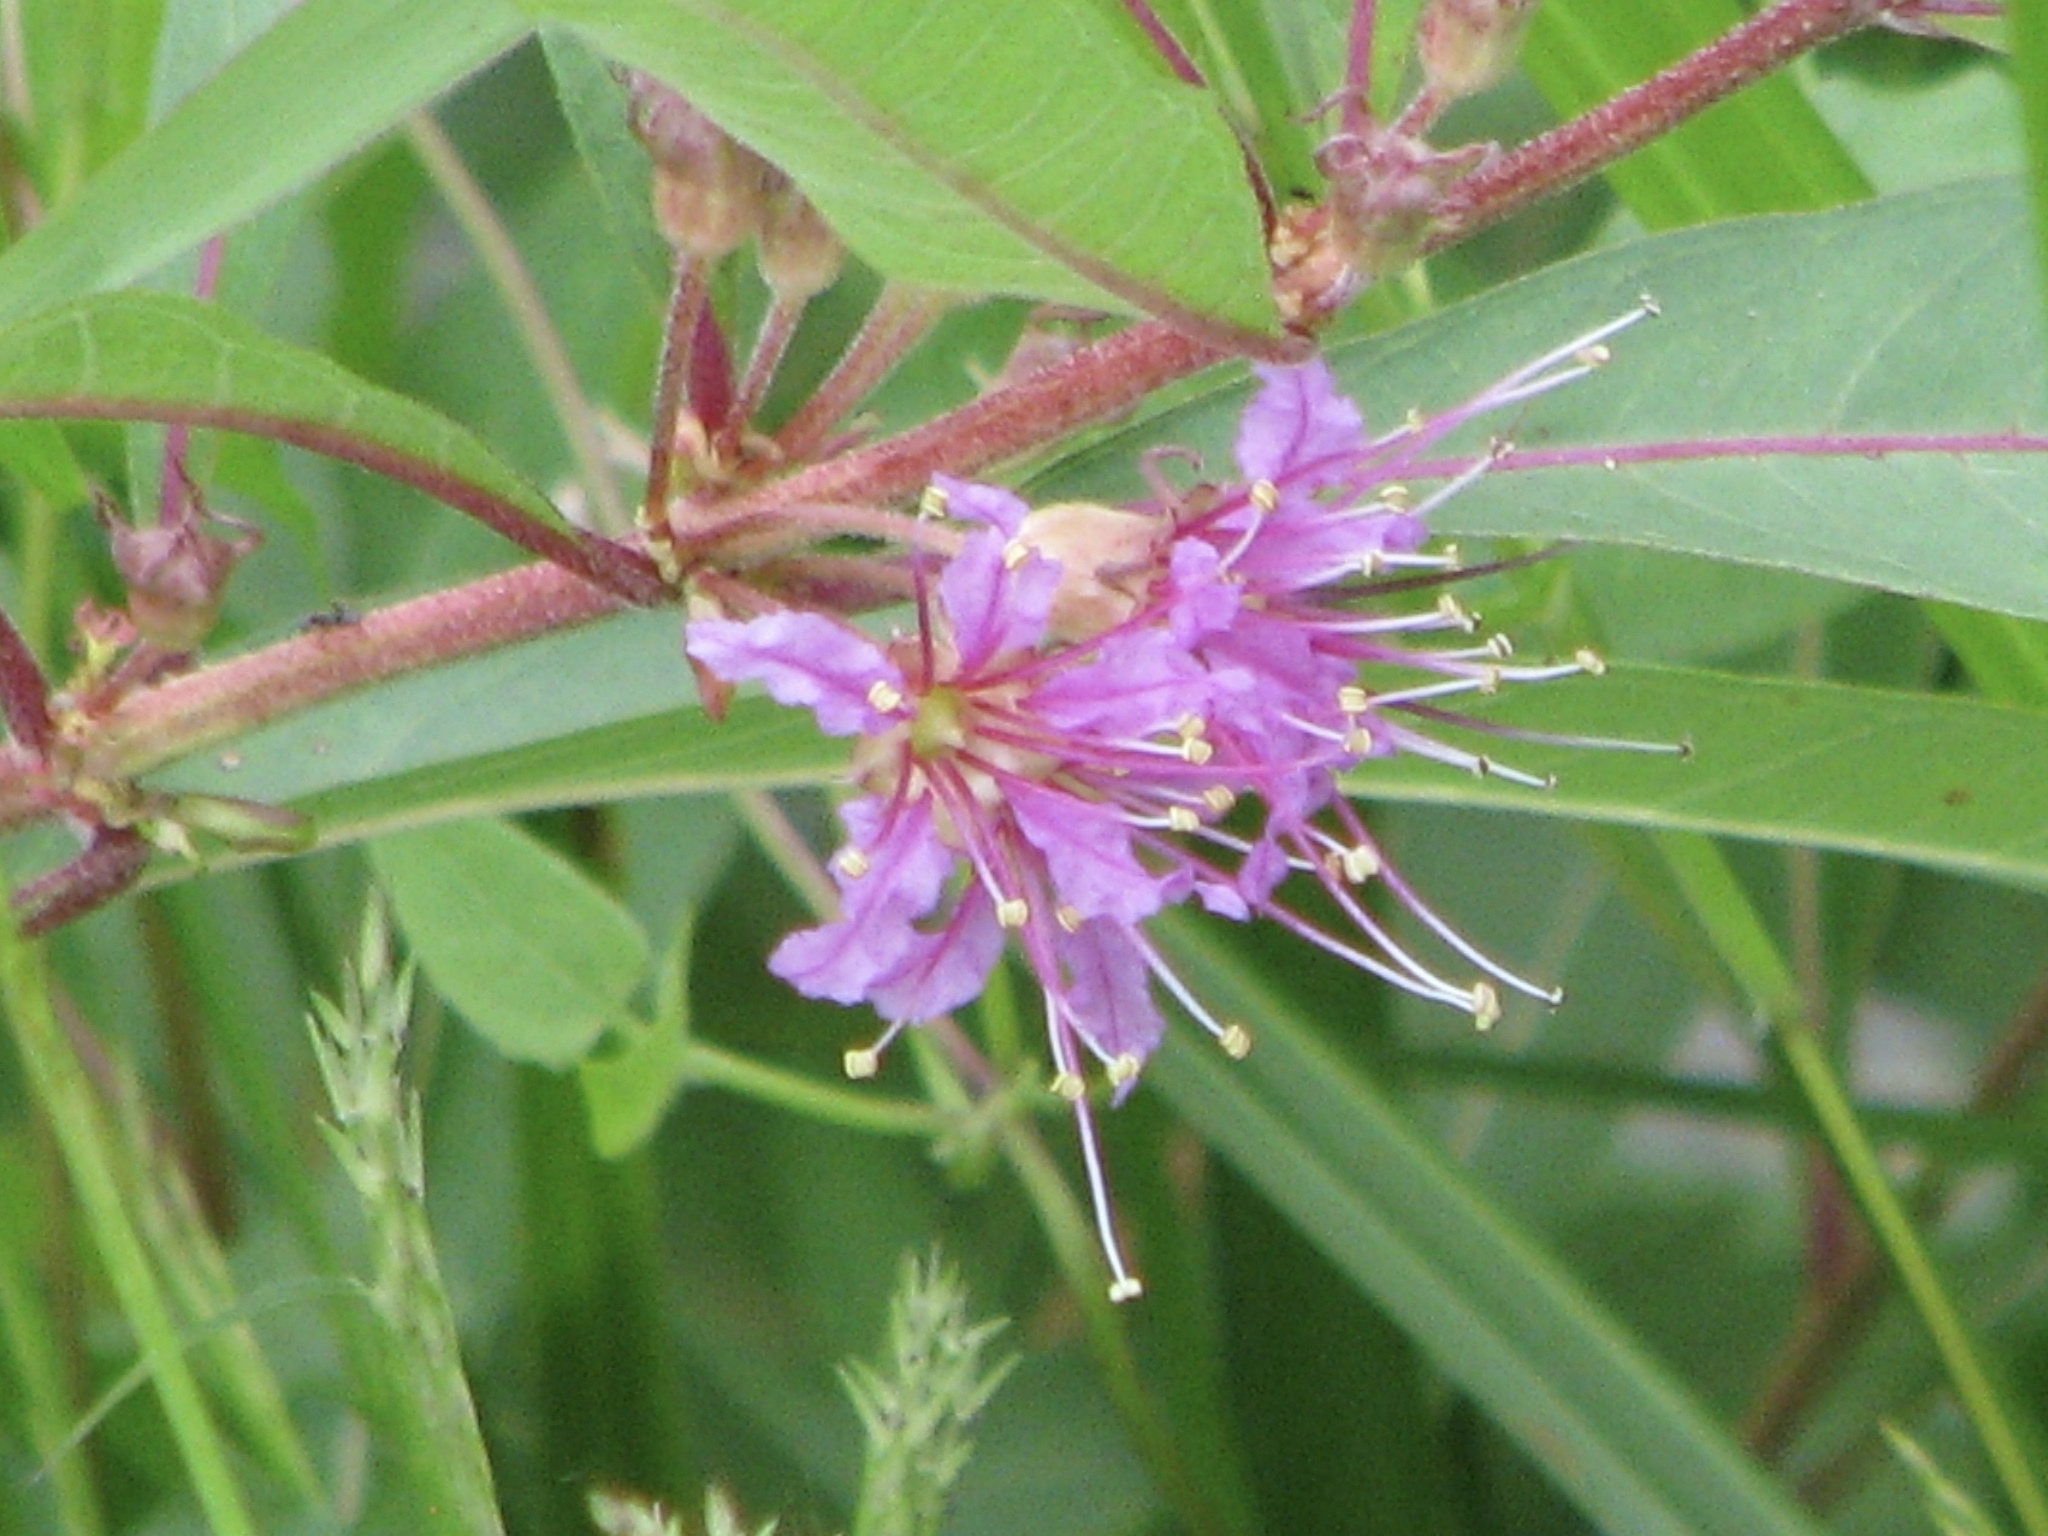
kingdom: Plantae
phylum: Tracheophyta
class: Magnoliopsida
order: Myrtales
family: Lythraceae
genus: Decodon
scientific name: Decodon verticillatus
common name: Hairy swamp loosestrife
